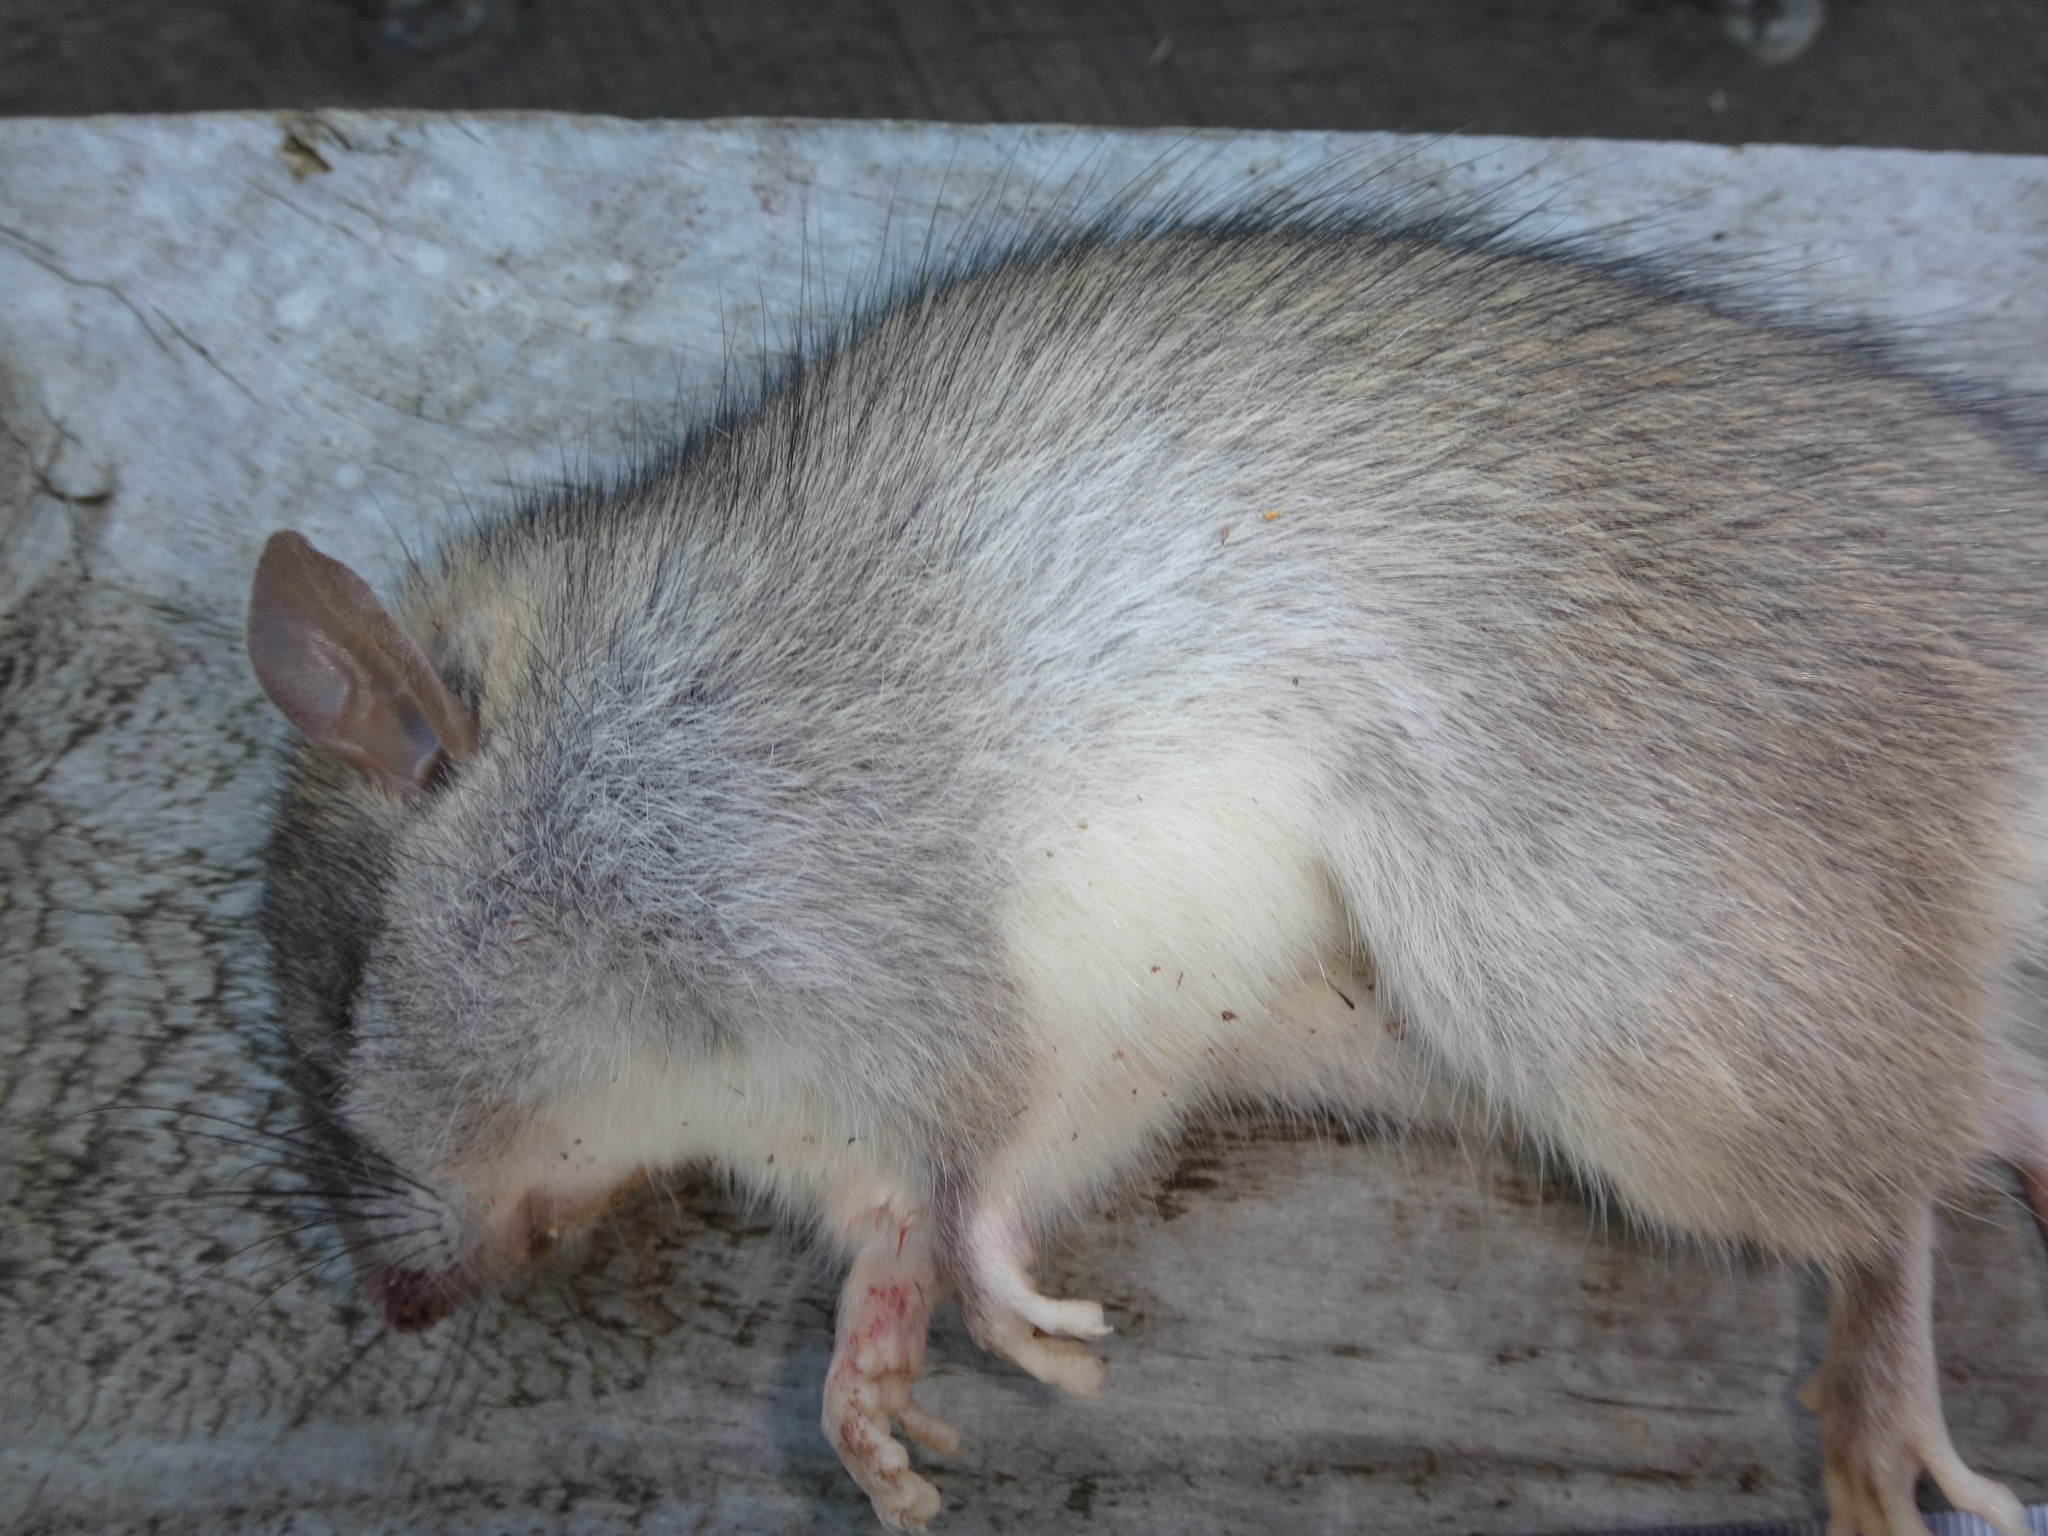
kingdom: Animalia
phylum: Chordata
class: Mammalia
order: Rodentia
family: Muridae
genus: Rattus
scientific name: Rattus rattus
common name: Black rat
